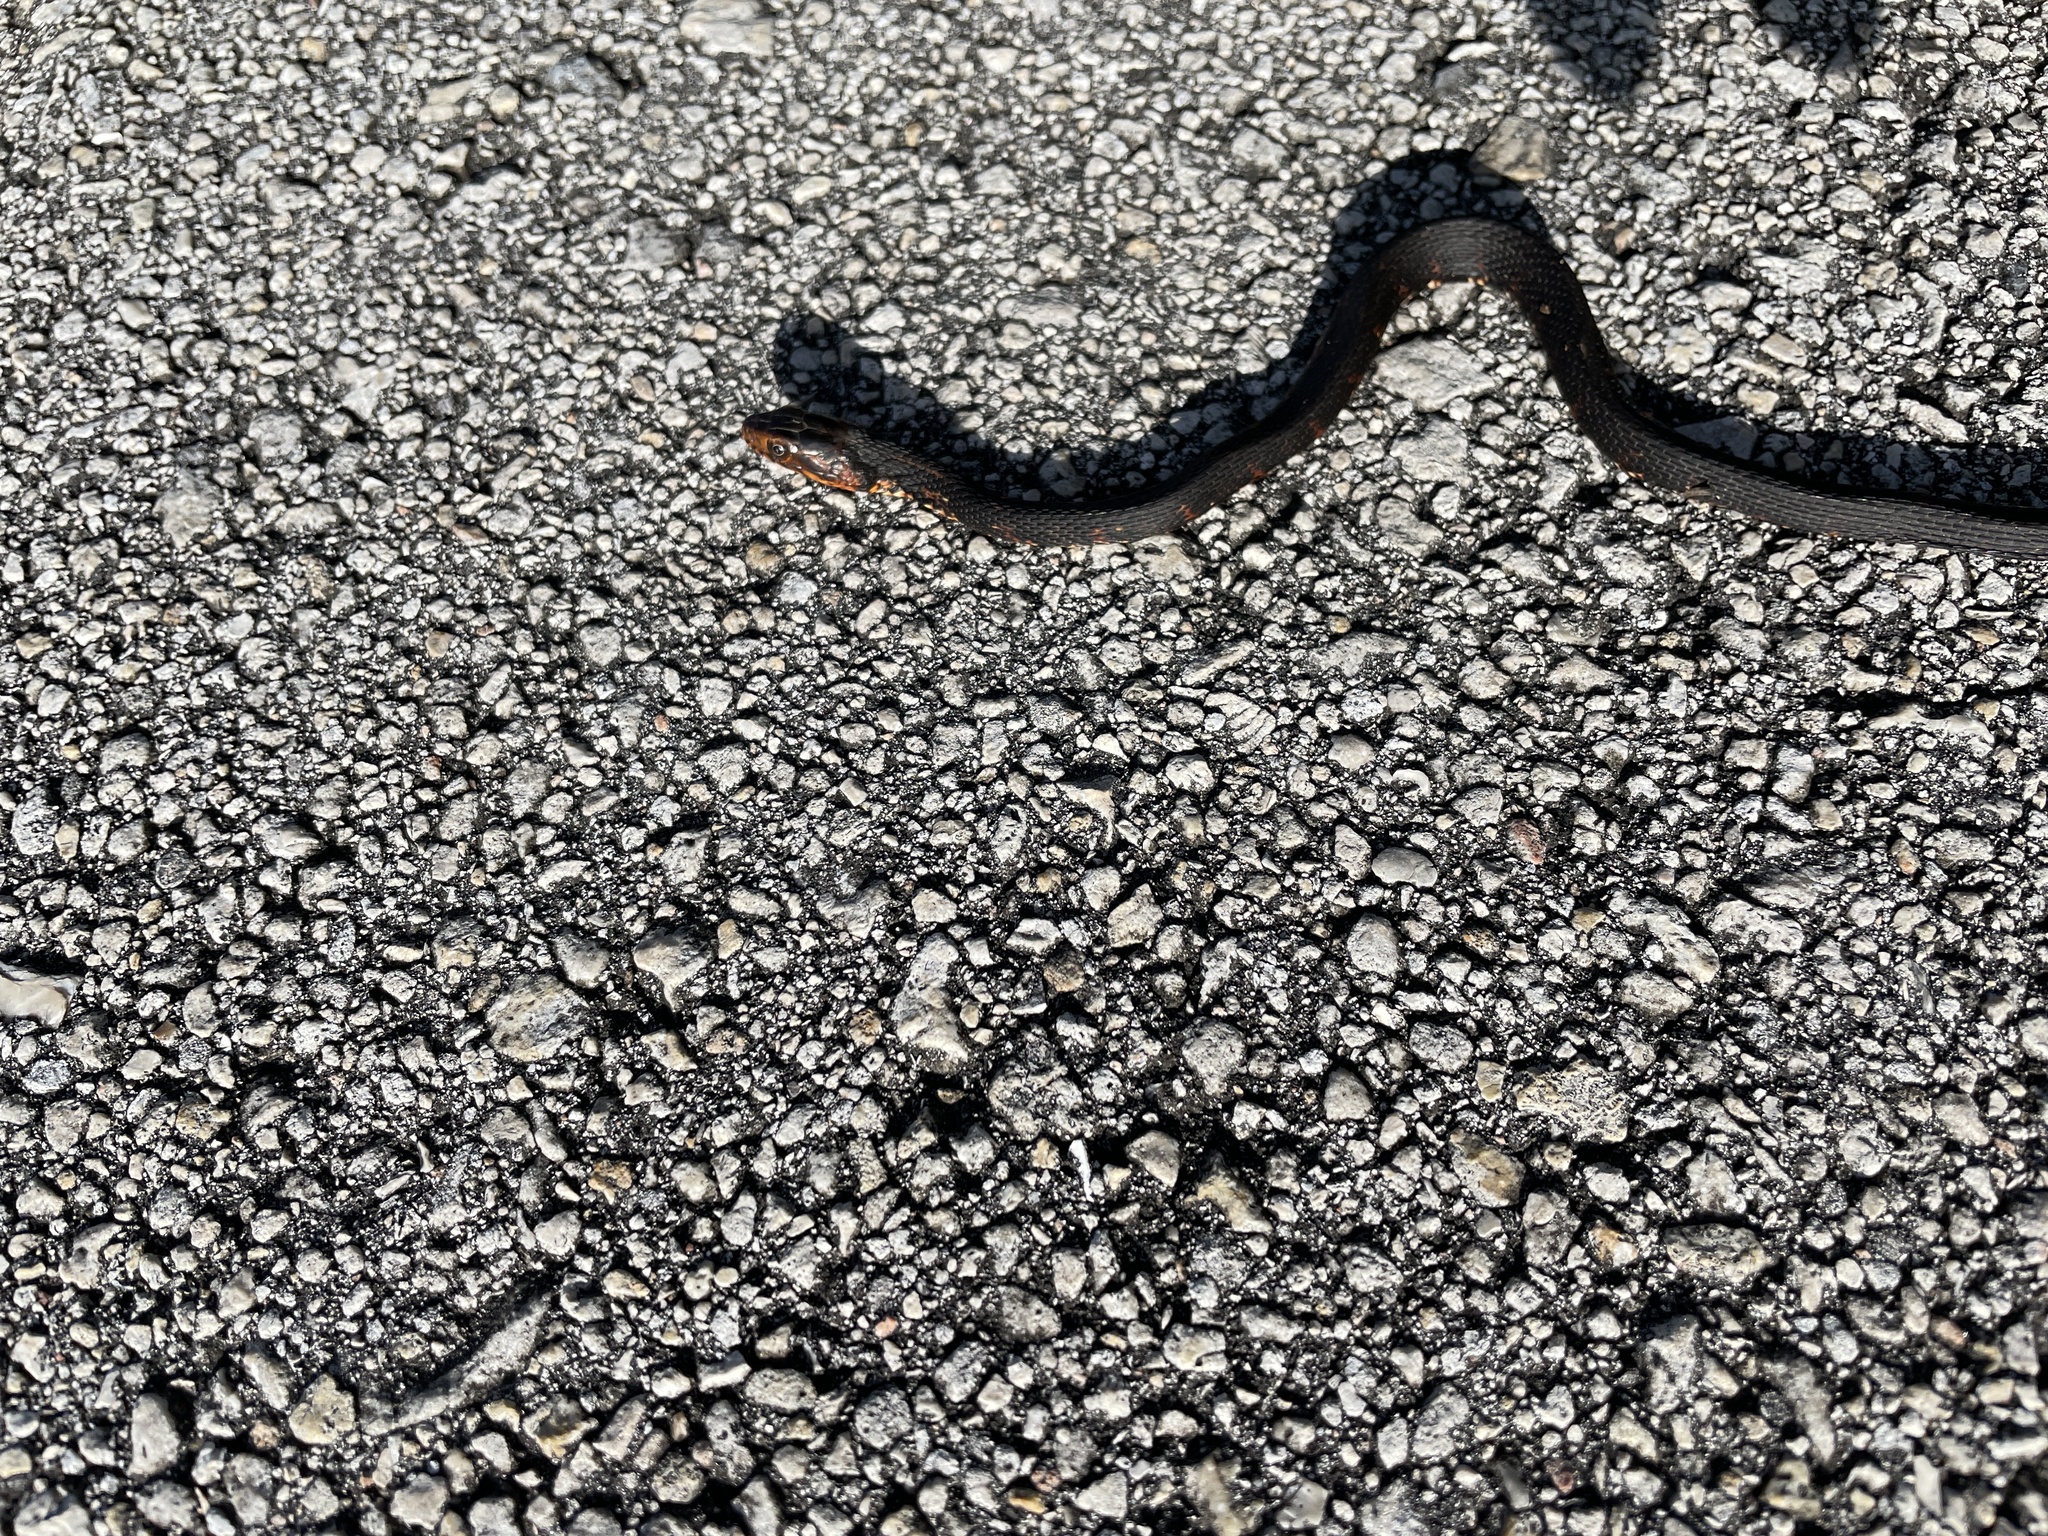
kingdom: Animalia
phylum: Chordata
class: Squamata
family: Colubridae
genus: Nerodia
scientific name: Nerodia fasciata
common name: Southern water snake
